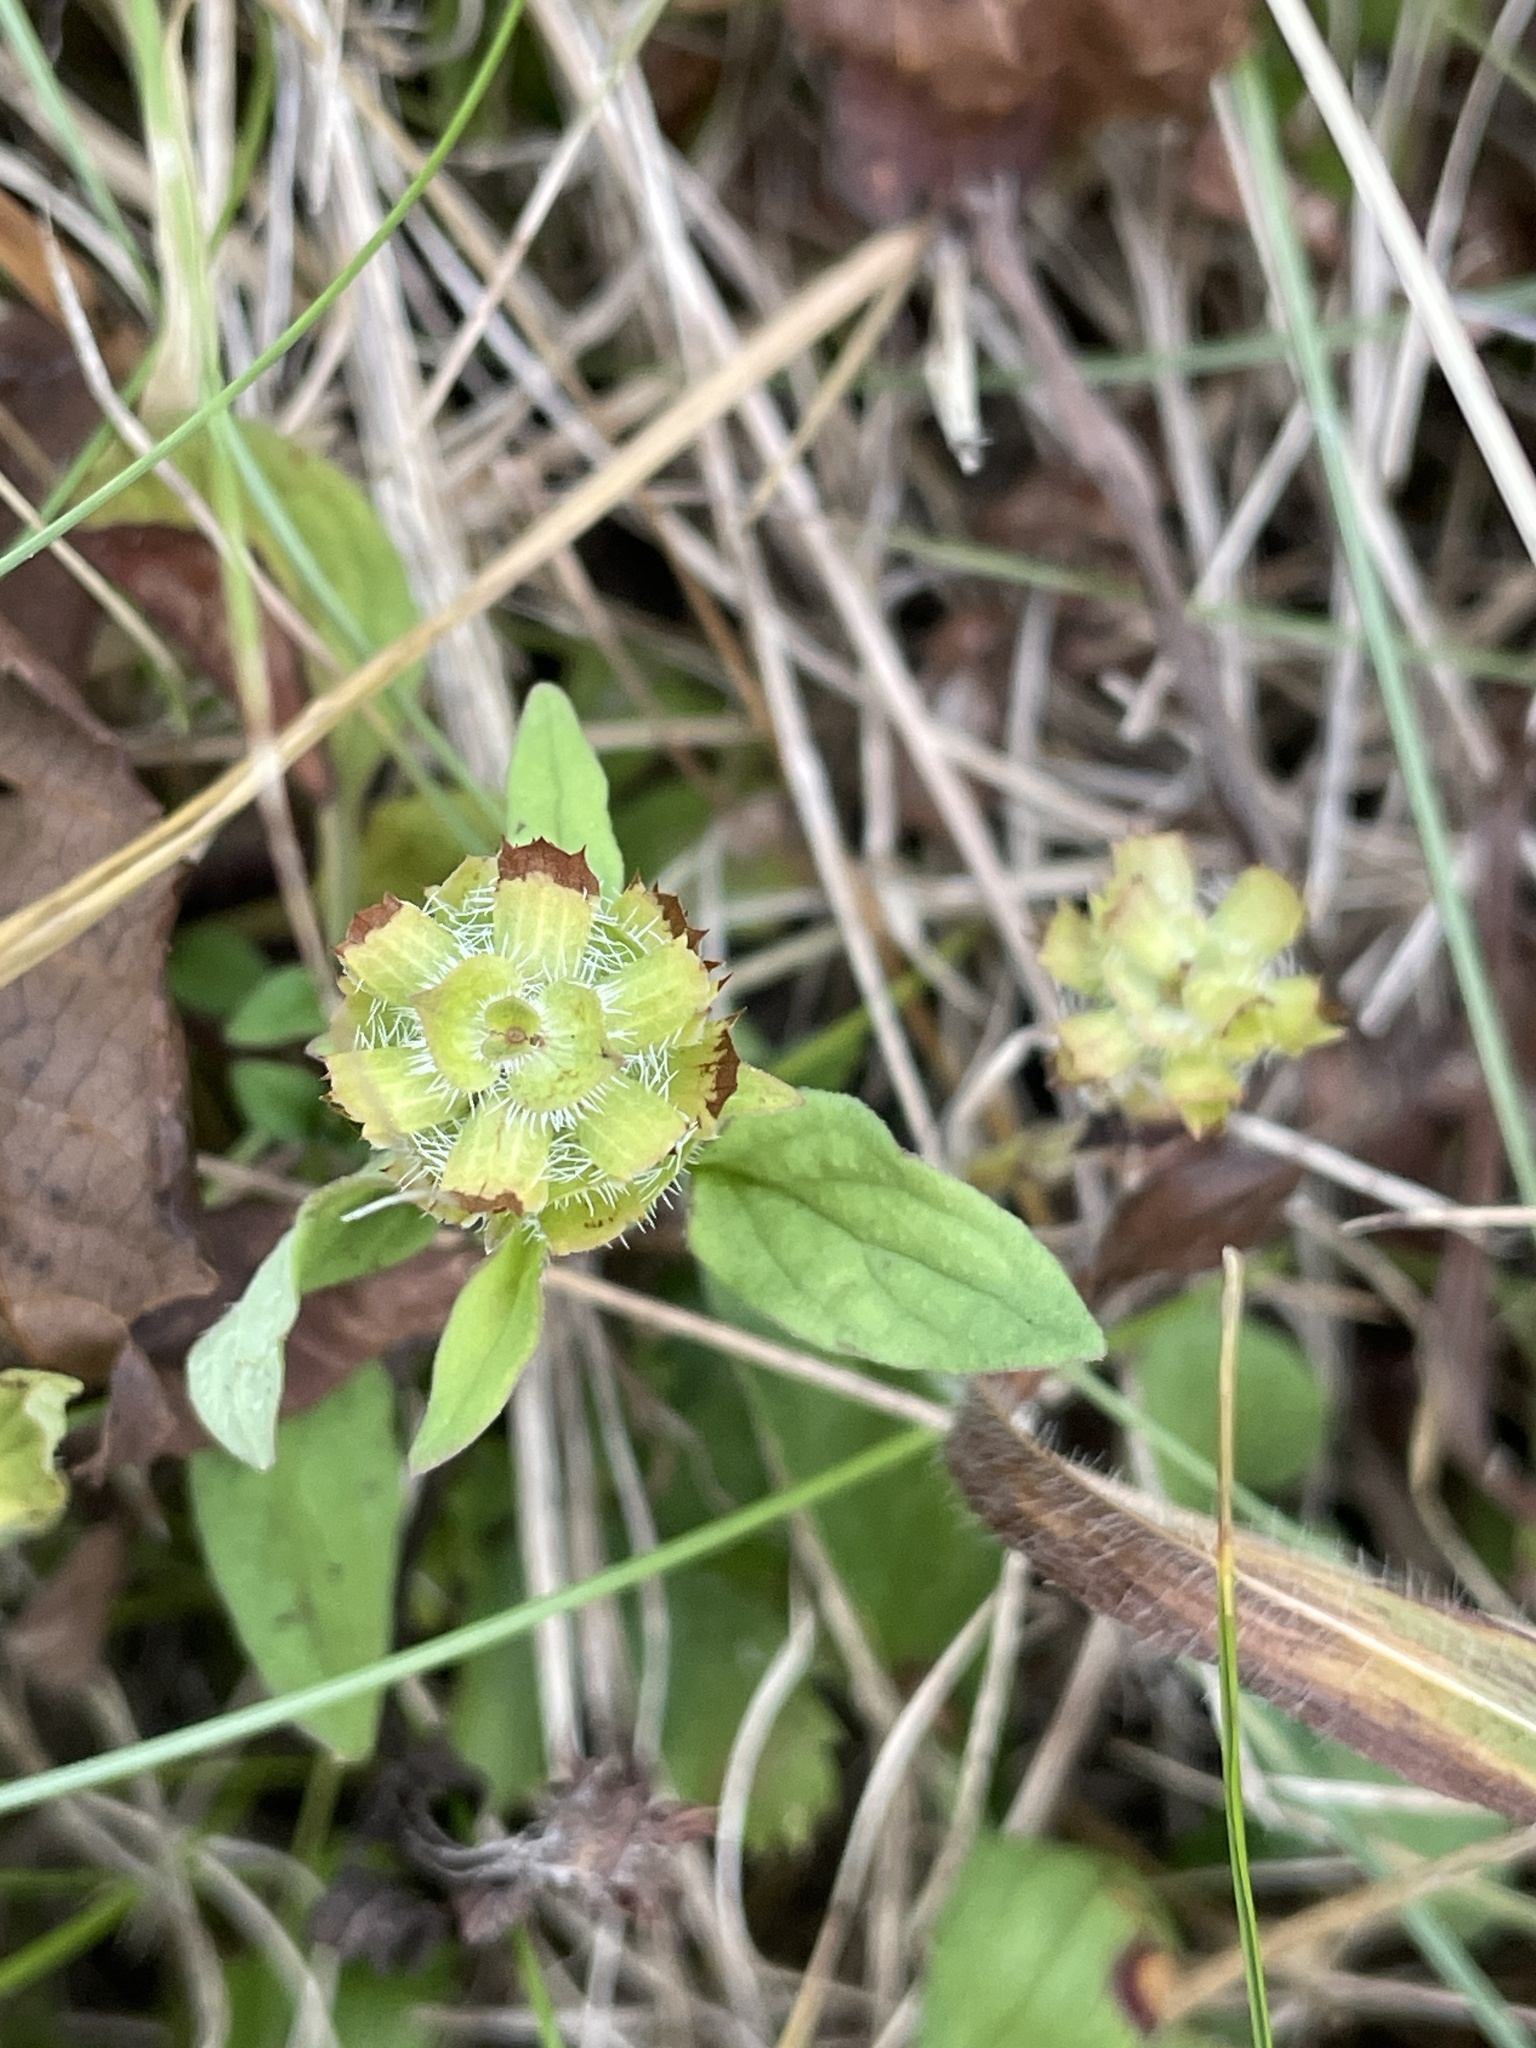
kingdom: Plantae
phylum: Tracheophyta
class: Magnoliopsida
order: Lamiales
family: Lamiaceae
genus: Prunella
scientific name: Prunella vulgaris
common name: Heal-all
